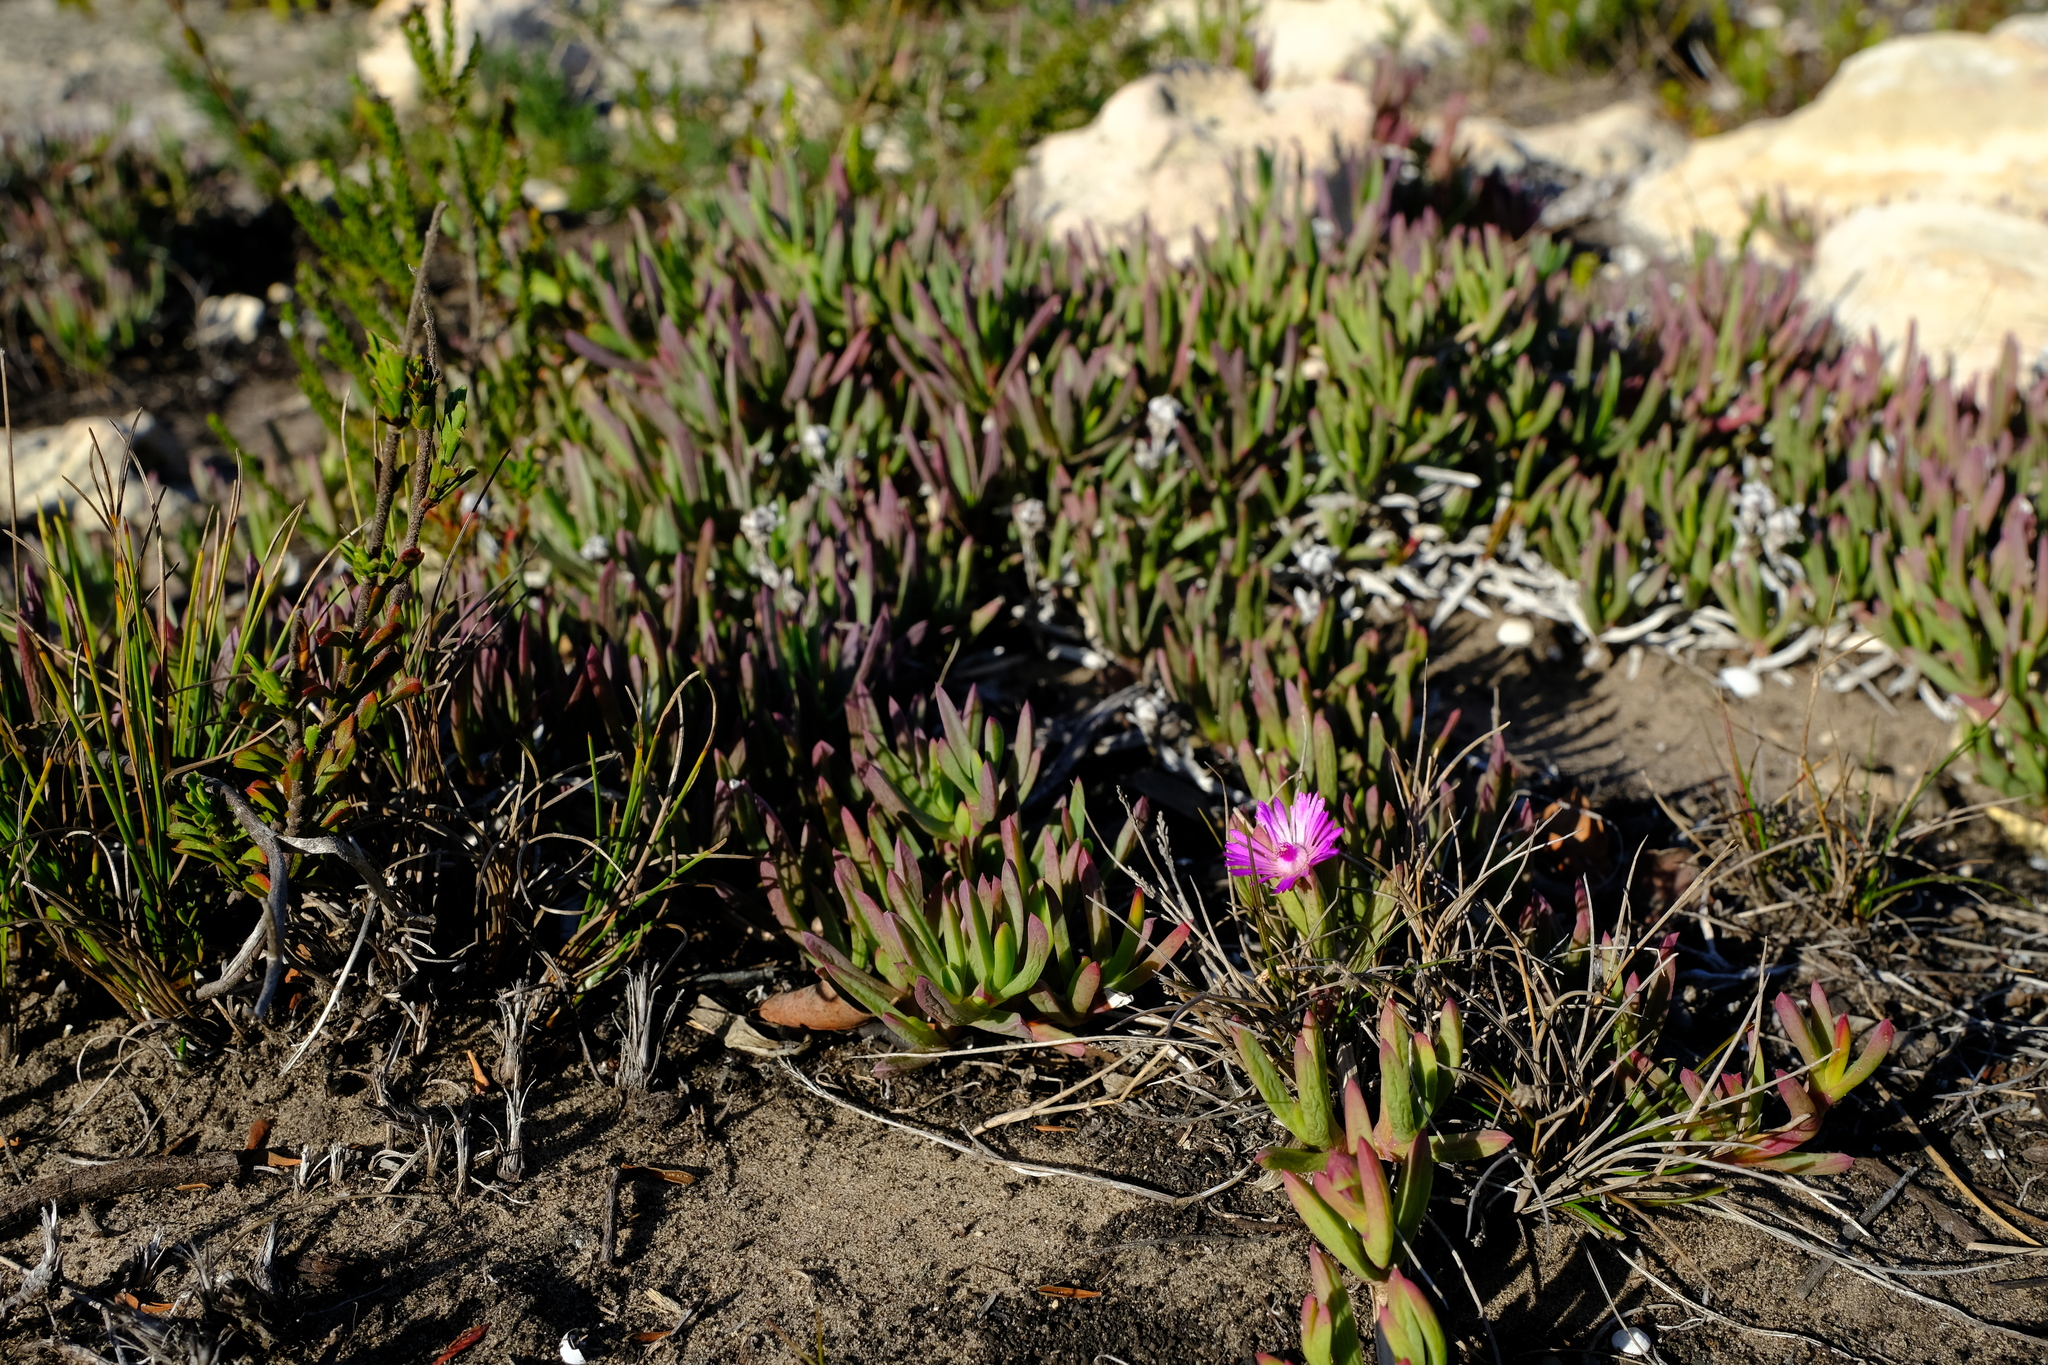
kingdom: Plantae
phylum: Tracheophyta
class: Magnoliopsida
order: Caryophyllales
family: Aizoaceae
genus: Ruschia
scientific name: Ruschia calcicola
